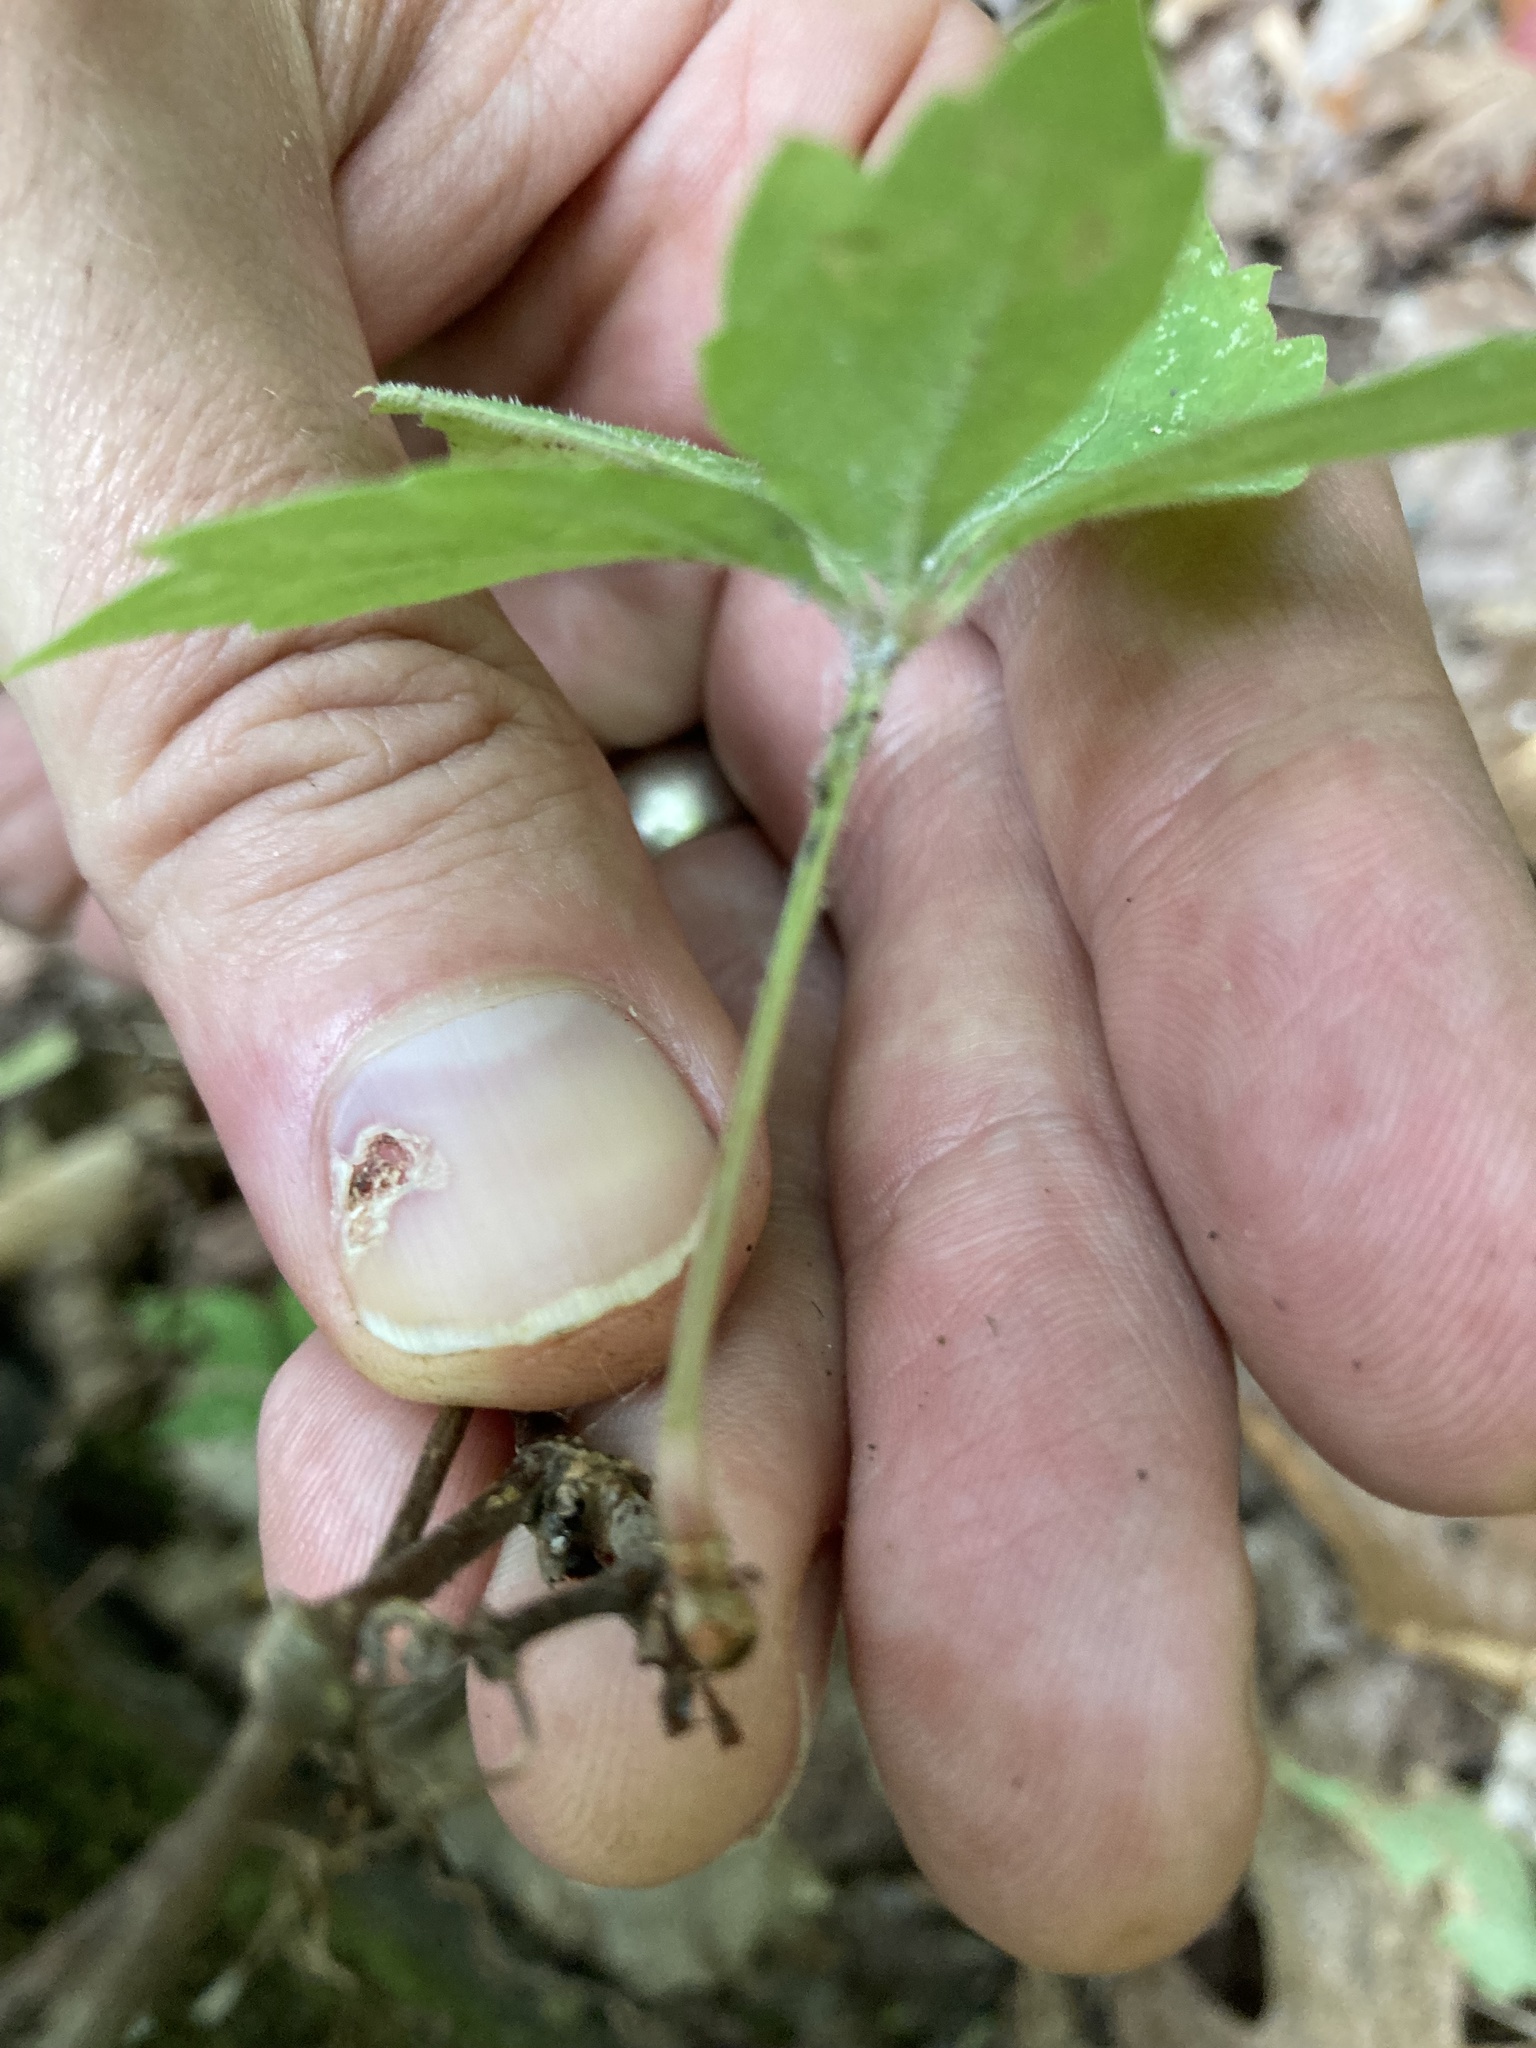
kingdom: Plantae
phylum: Tracheophyta
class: Magnoliopsida
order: Vitales
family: Vitaceae
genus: Parthenocissus
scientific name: Parthenocissus quinquefolia
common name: Virginia-creeper
